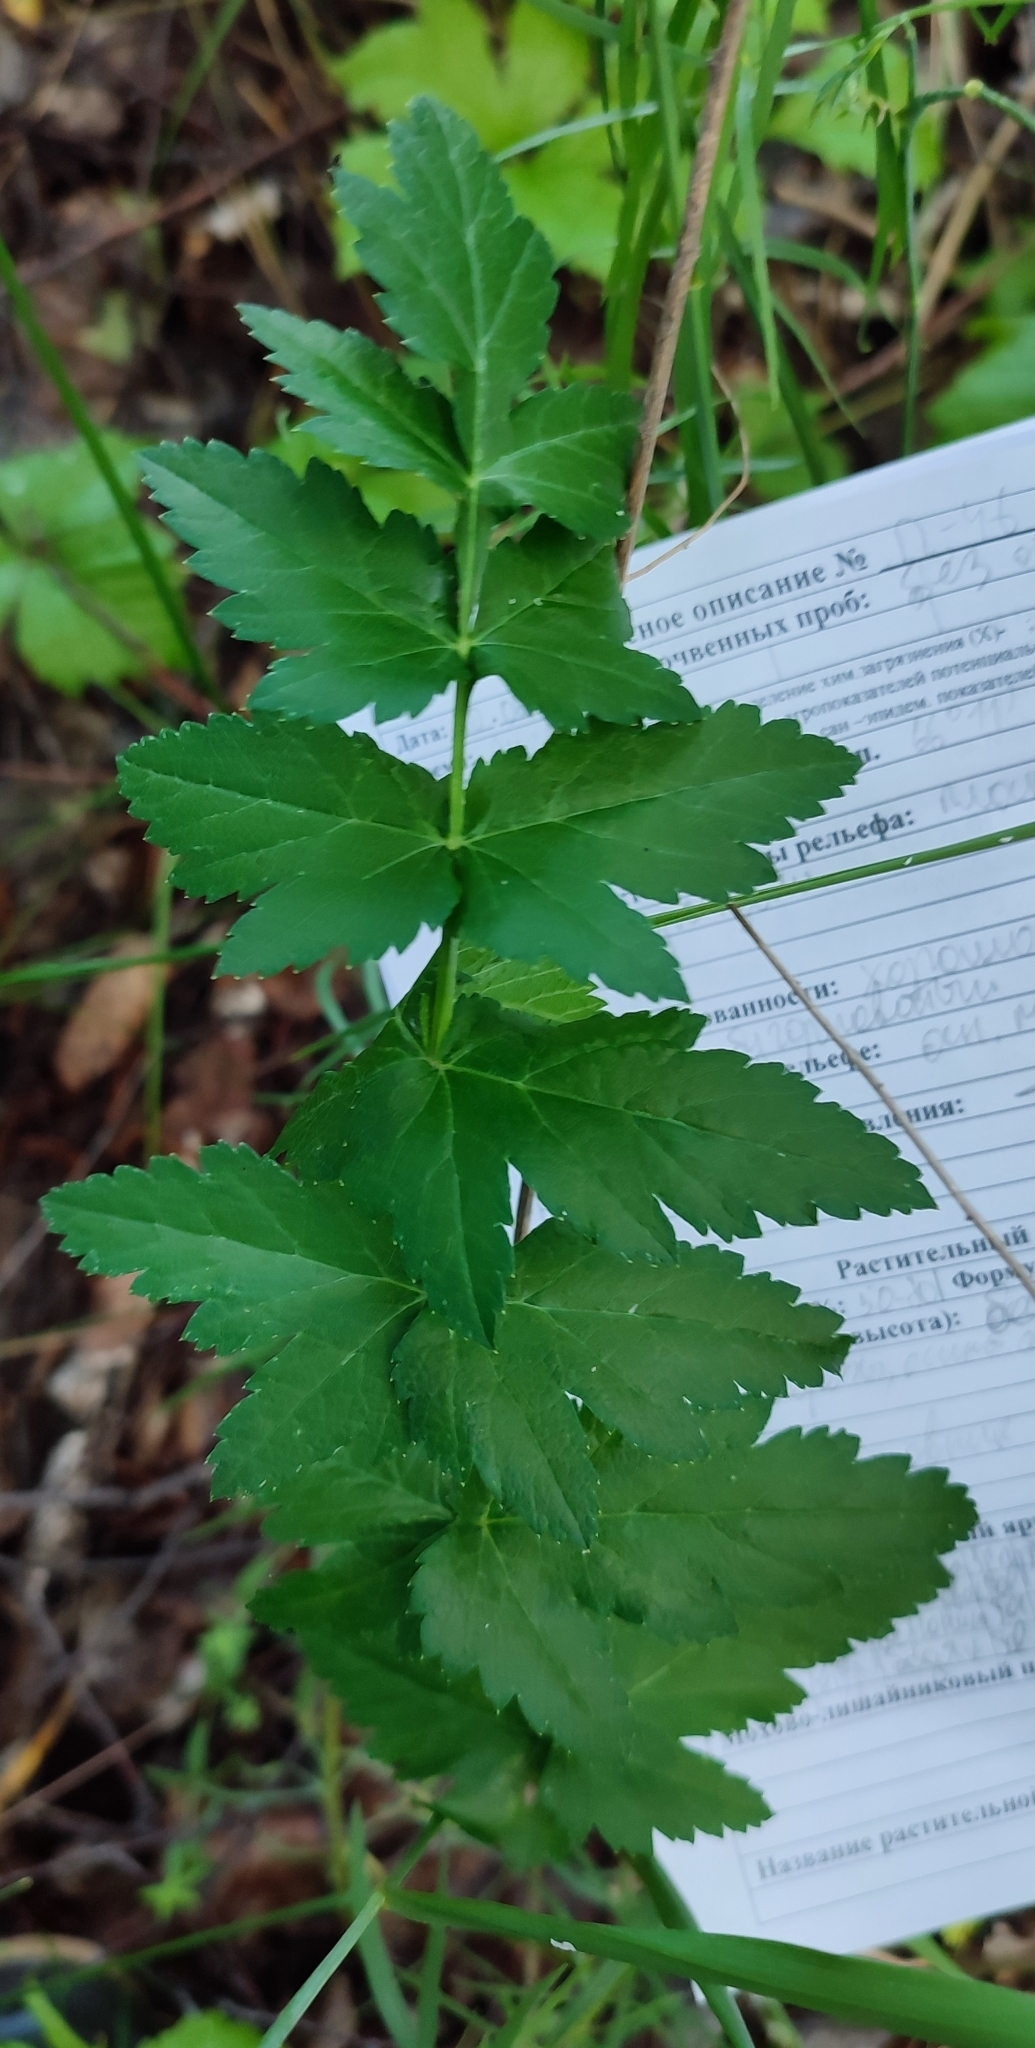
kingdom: Plantae
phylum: Tracheophyta
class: Magnoliopsida
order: Apiales
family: Apiaceae
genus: Pastinaca
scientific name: Pastinaca sativa
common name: Wild parsnip
